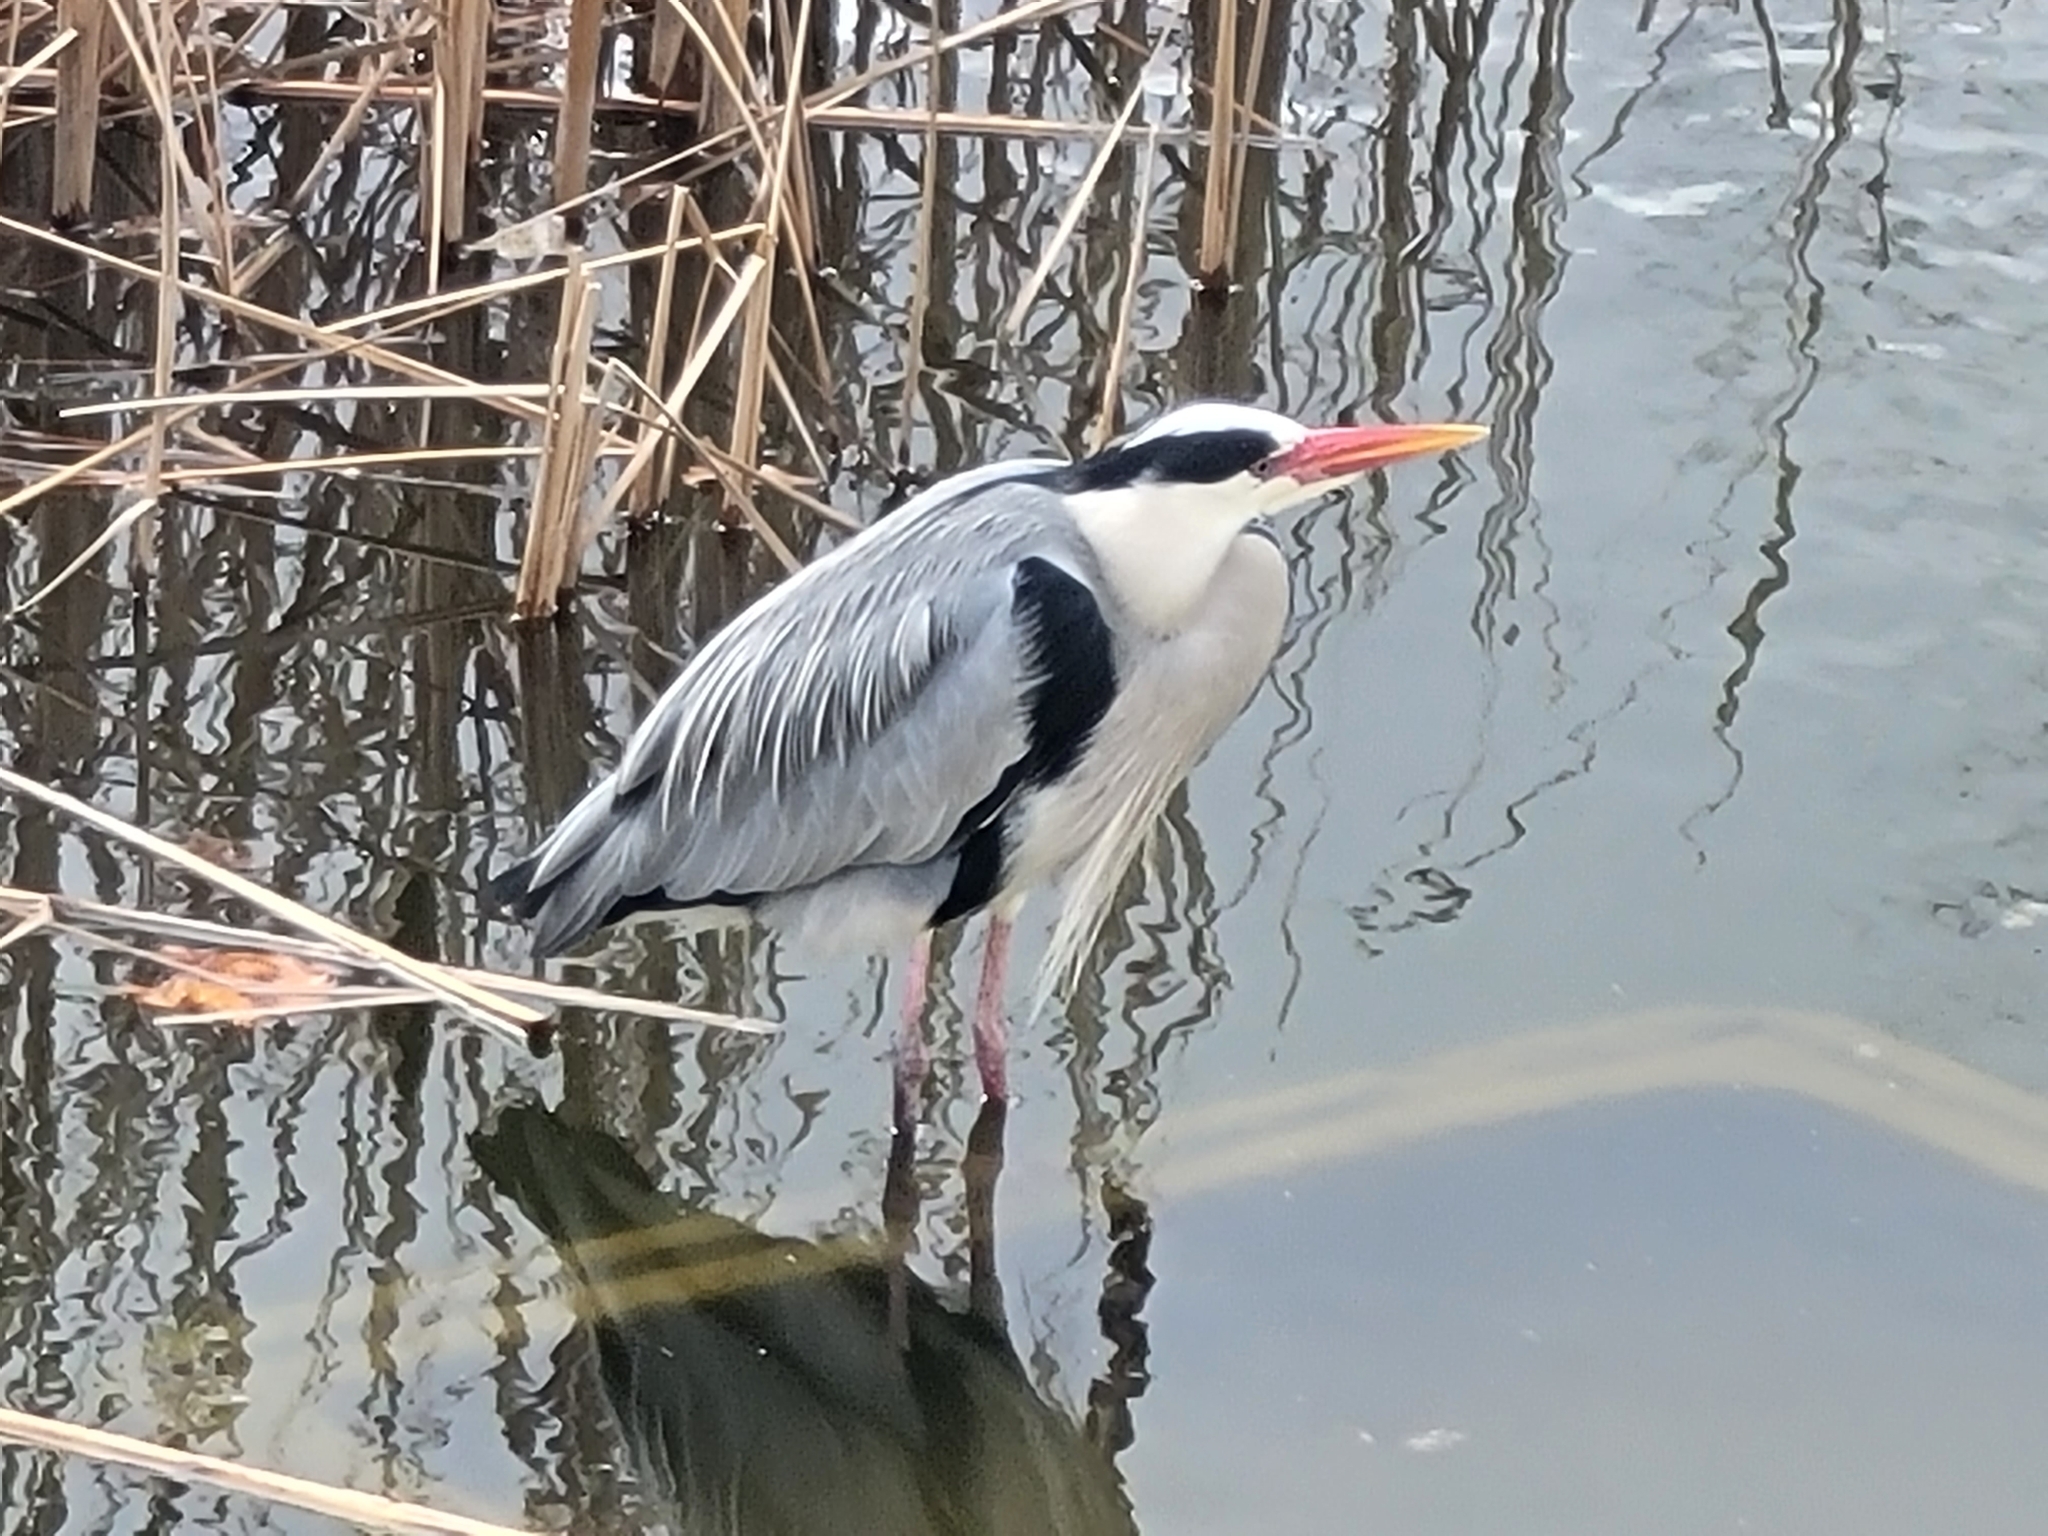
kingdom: Animalia
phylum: Chordata
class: Aves
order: Pelecaniformes
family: Ardeidae
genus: Ardea
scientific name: Ardea cinerea
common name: Grey heron
